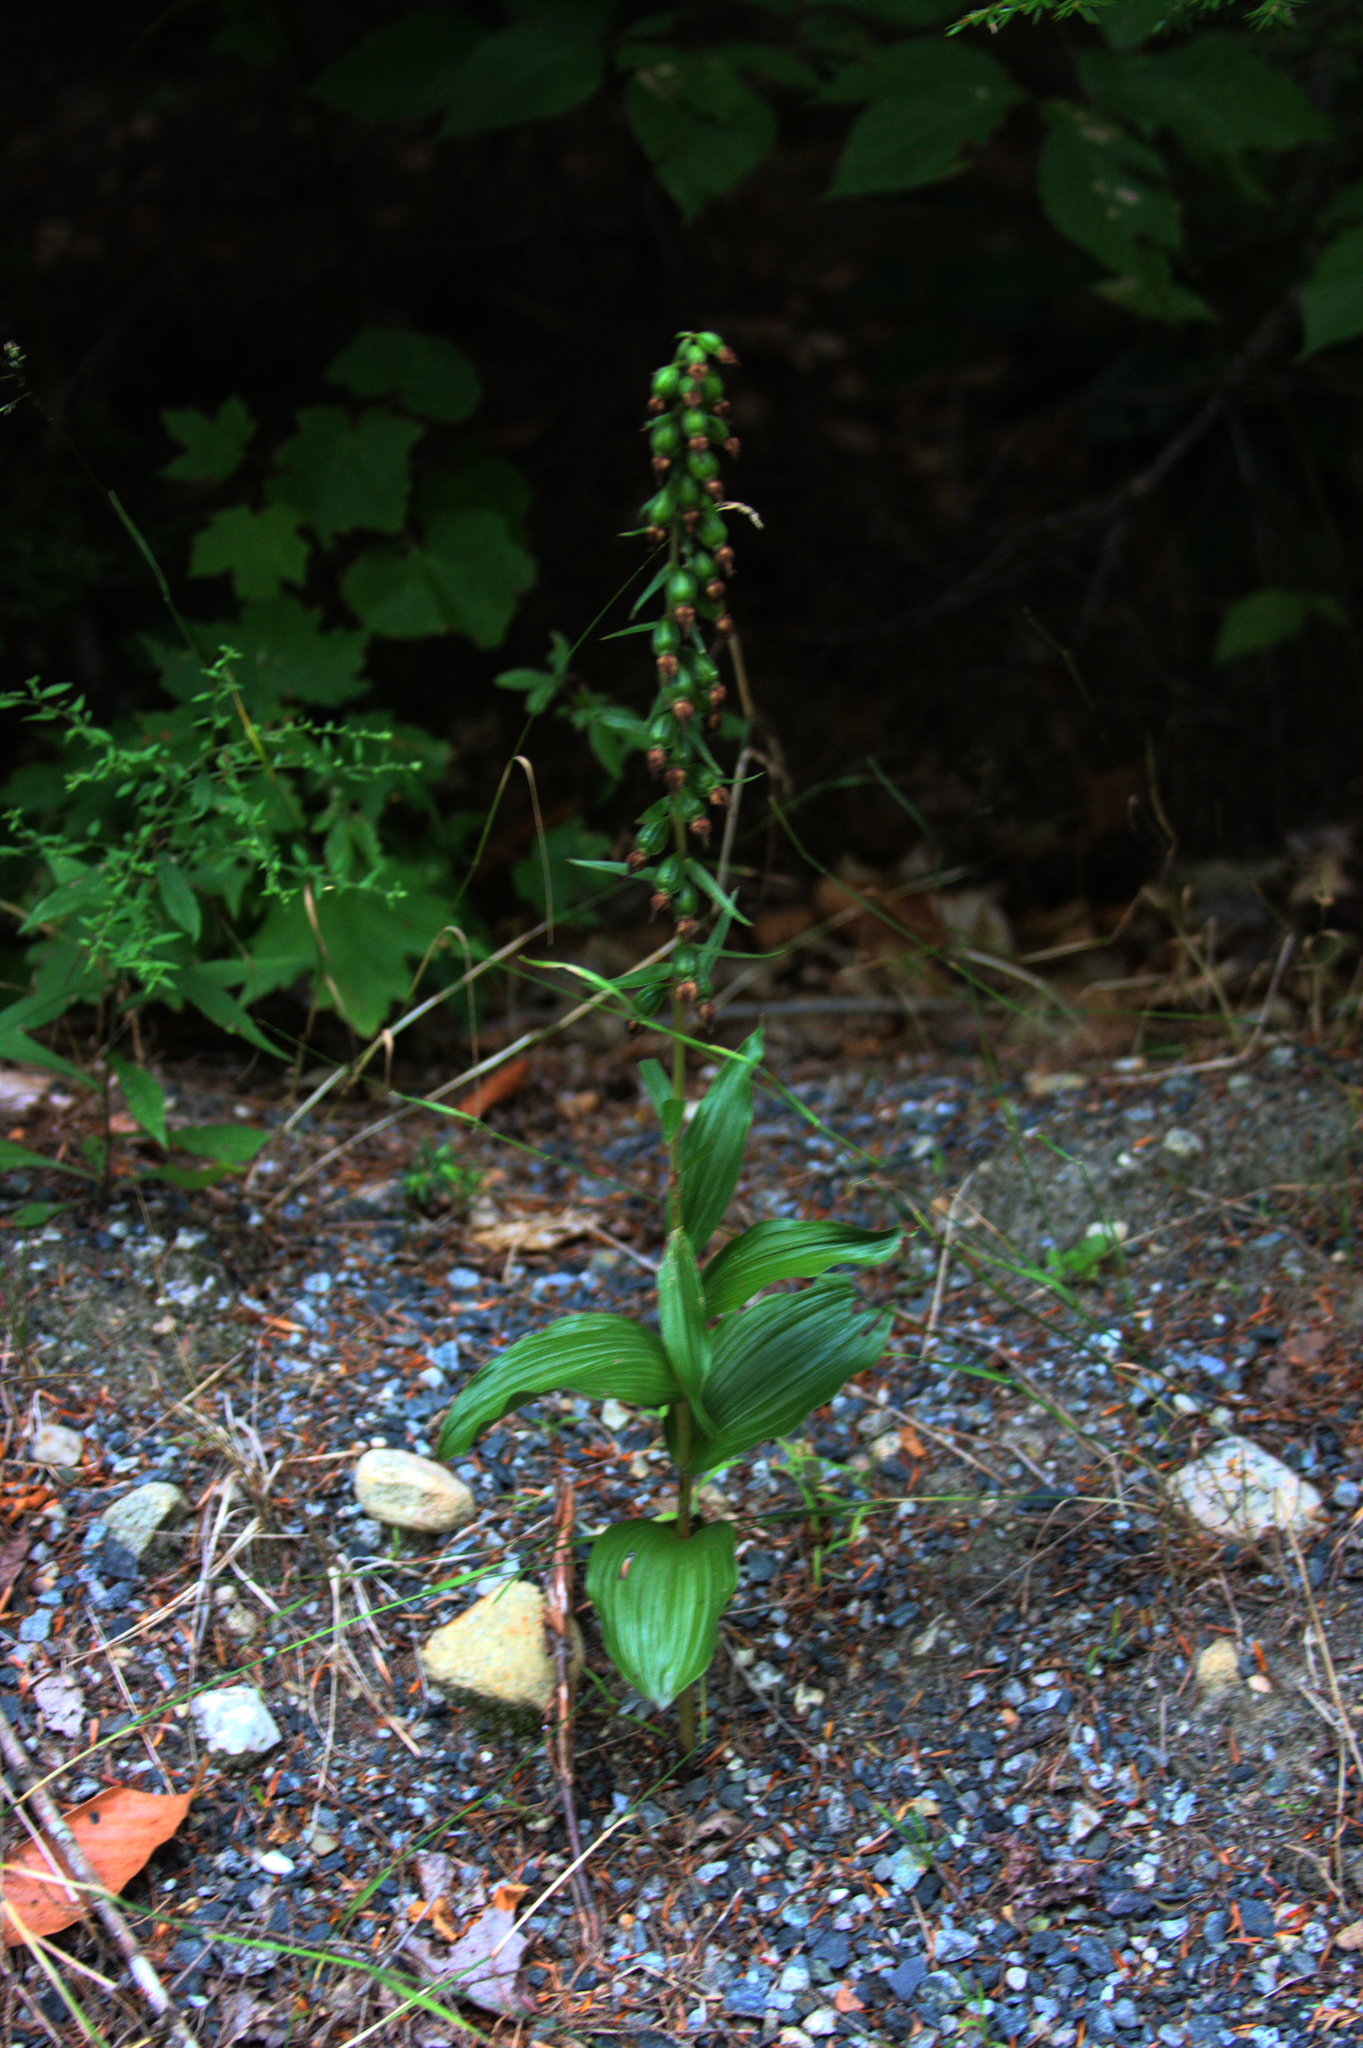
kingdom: Plantae
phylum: Tracheophyta
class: Liliopsida
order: Asparagales
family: Orchidaceae
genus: Epipactis
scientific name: Epipactis helleborine
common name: Broad-leaved helleborine
